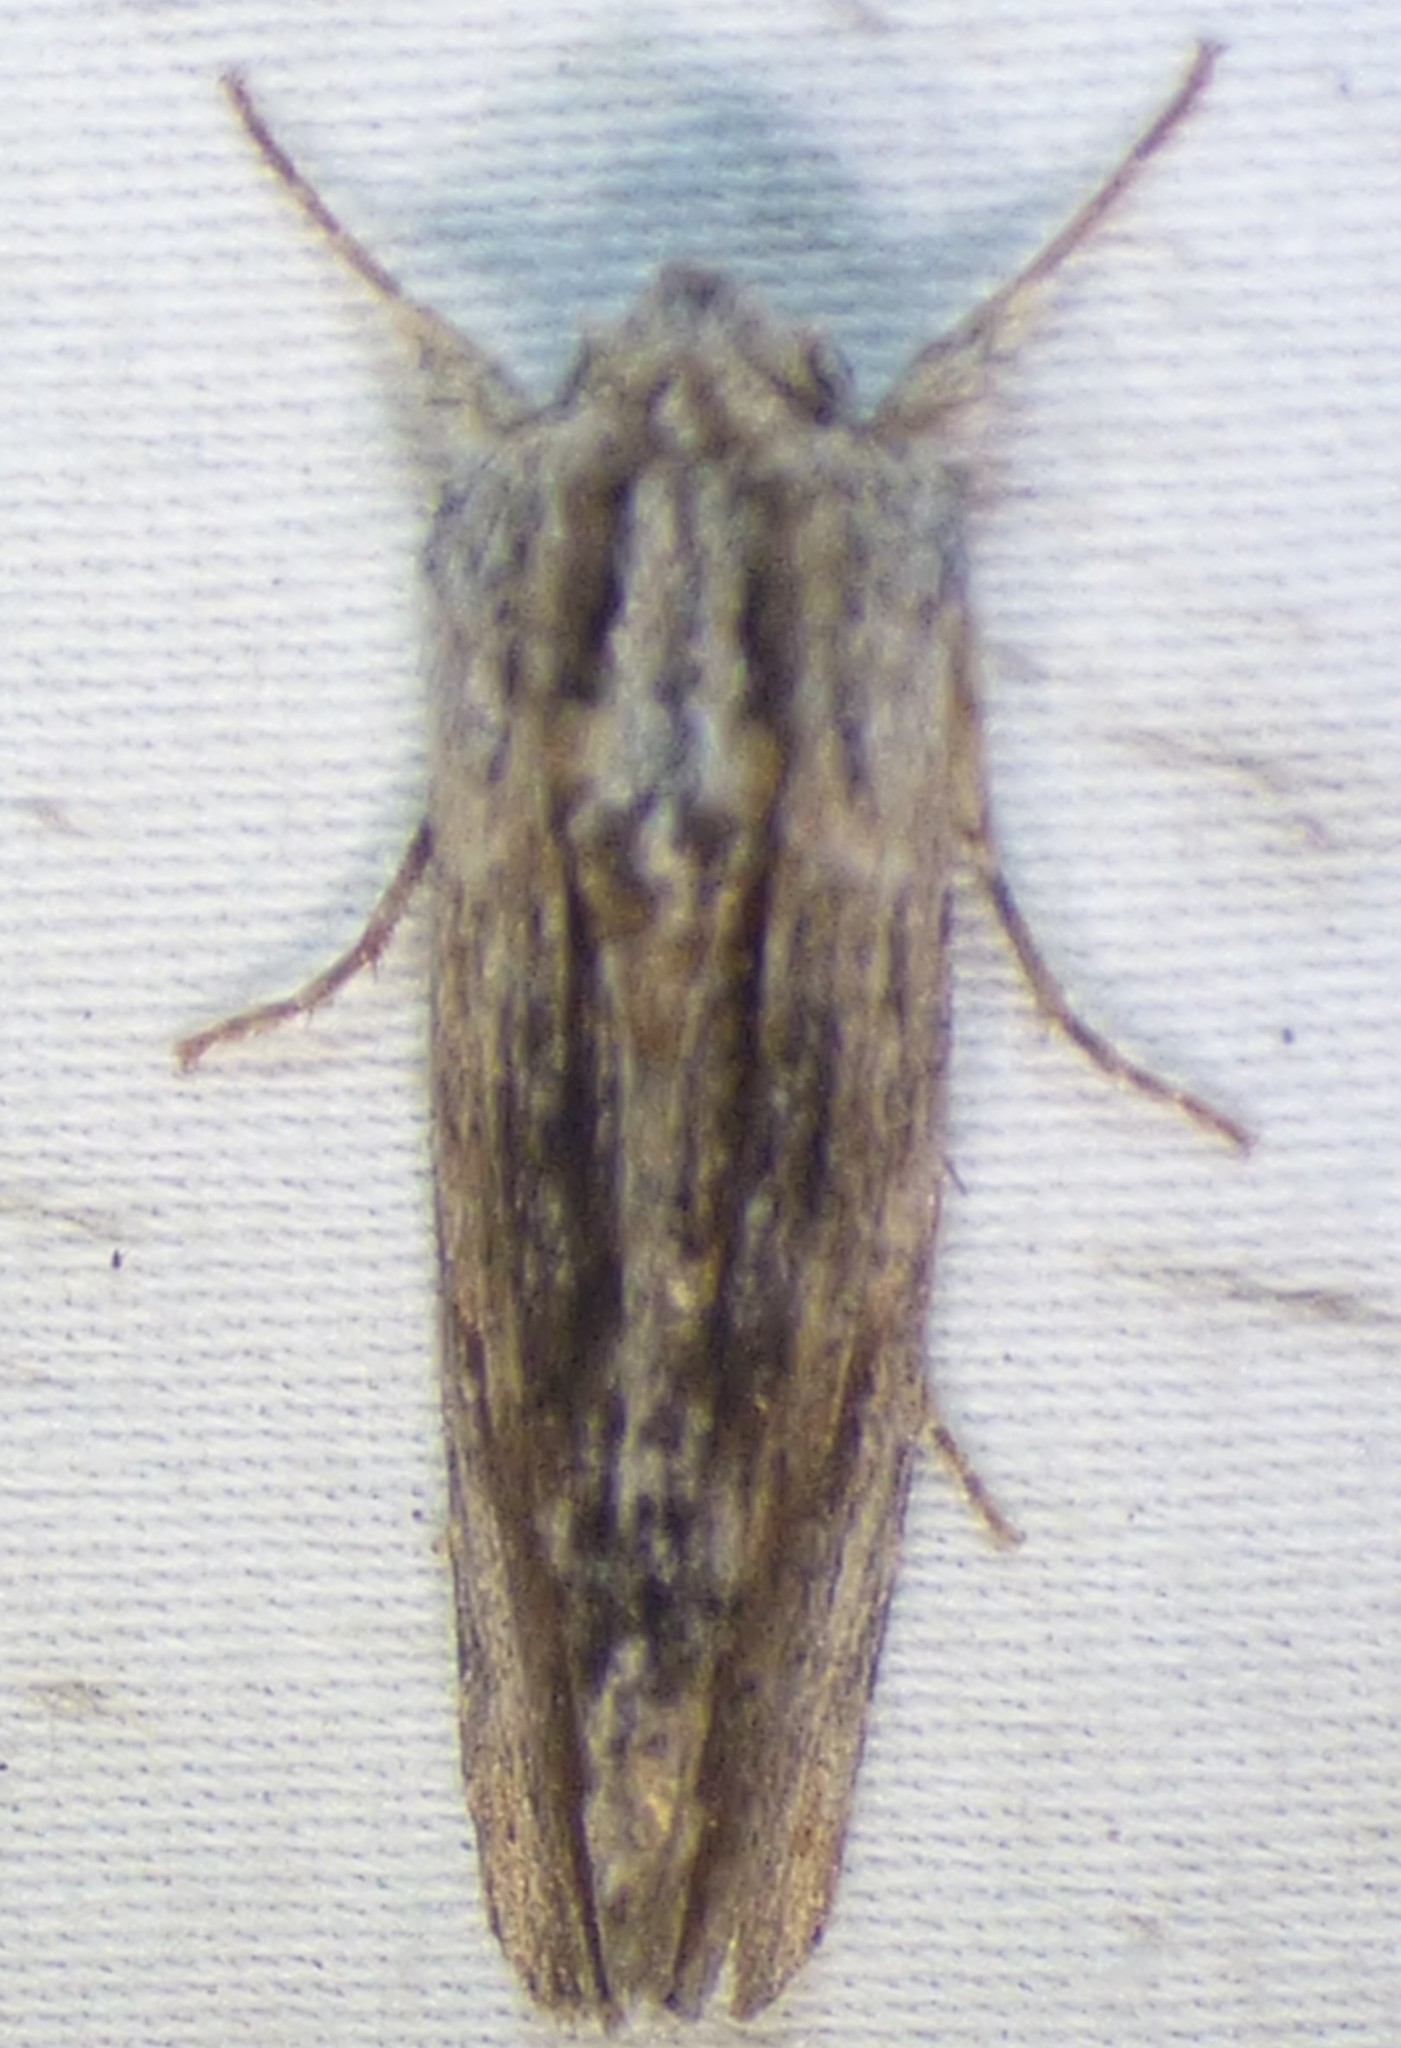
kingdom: Animalia
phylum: Arthropoda
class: Insecta
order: Lepidoptera
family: Noctuidae
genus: Spodoptera
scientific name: Spodoptera eridania
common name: Southern army worm
